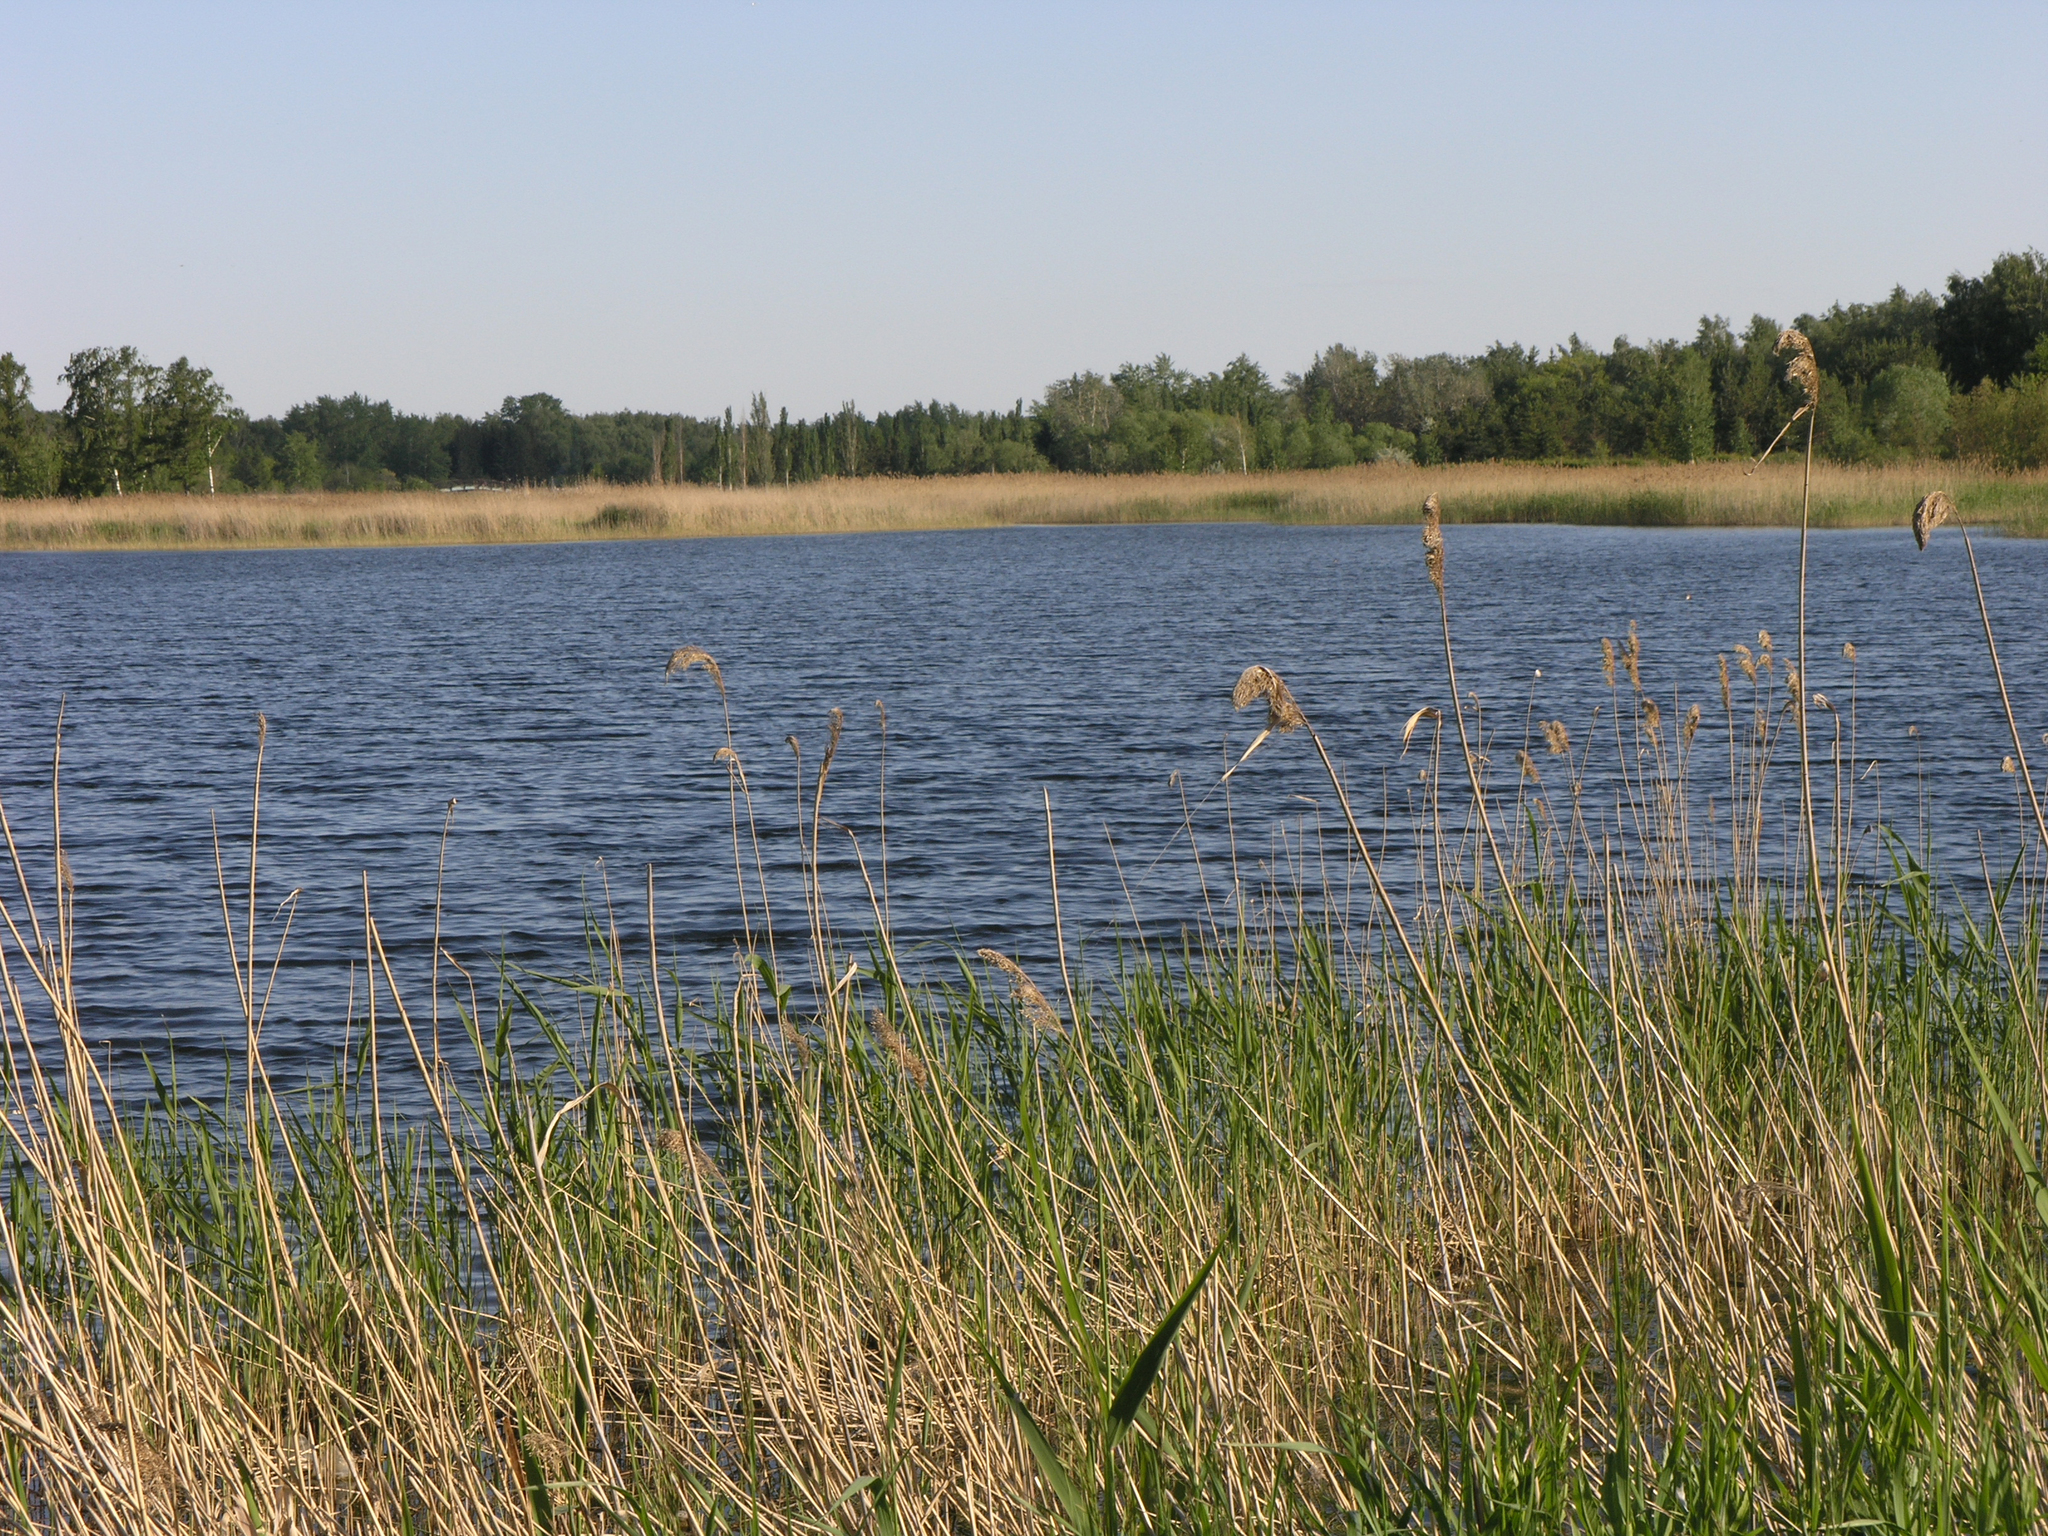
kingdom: Plantae
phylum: Tracheophyta
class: Liliopsida
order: Poales
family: Poaceae
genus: Phragmites
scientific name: Phragmites australis
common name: Common reed
